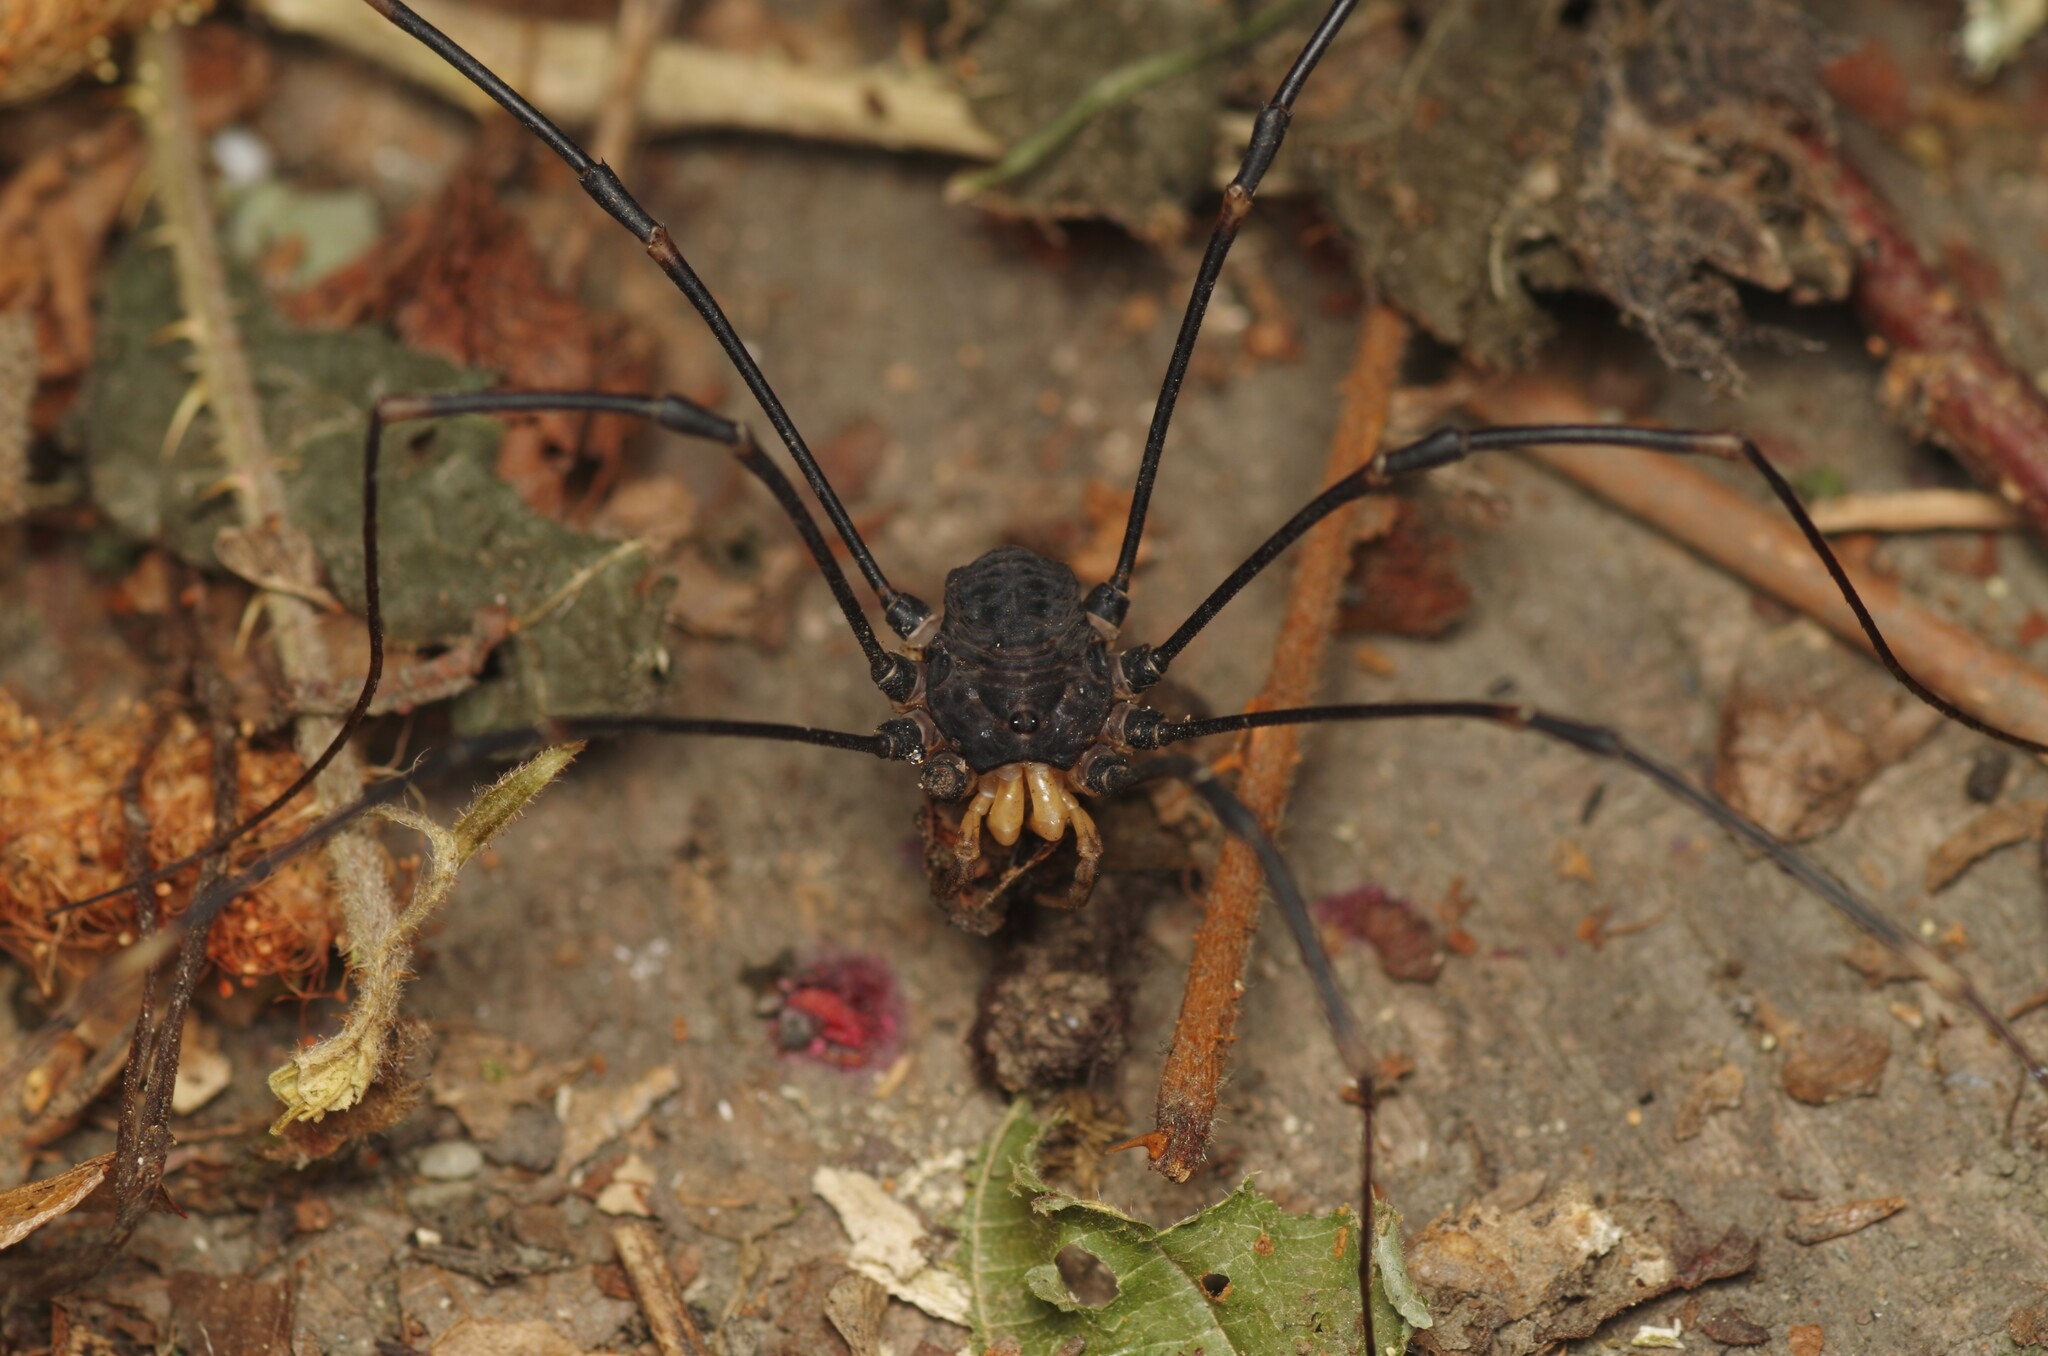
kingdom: Animalia
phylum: Arthropoda
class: Arachnida
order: Opiliones
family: Sclerosomatidae
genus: Gyas
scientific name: Gyas titanus
